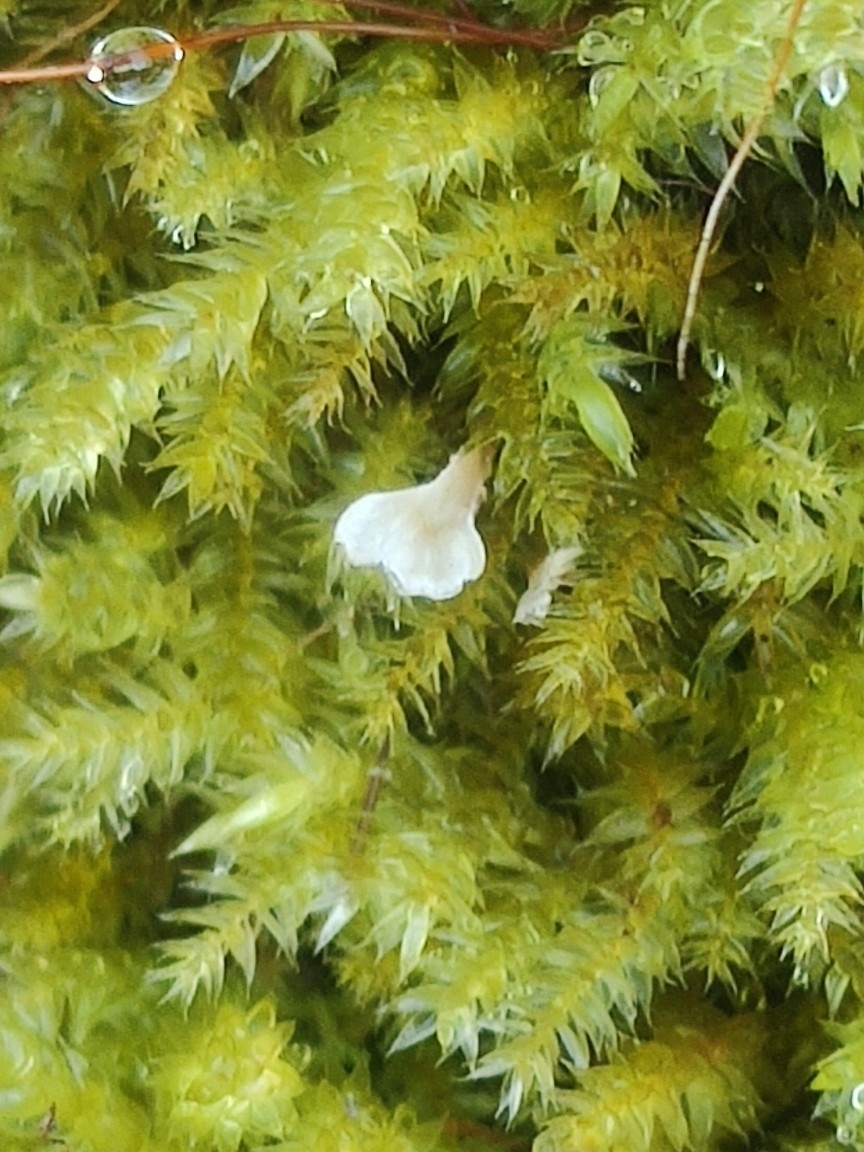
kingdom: Fungi
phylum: Basidiomycota
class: Agaricomycetes
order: Hymenochaetales
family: Rickenellaceae
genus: Cotylidia
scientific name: Cotylidia muscigena
